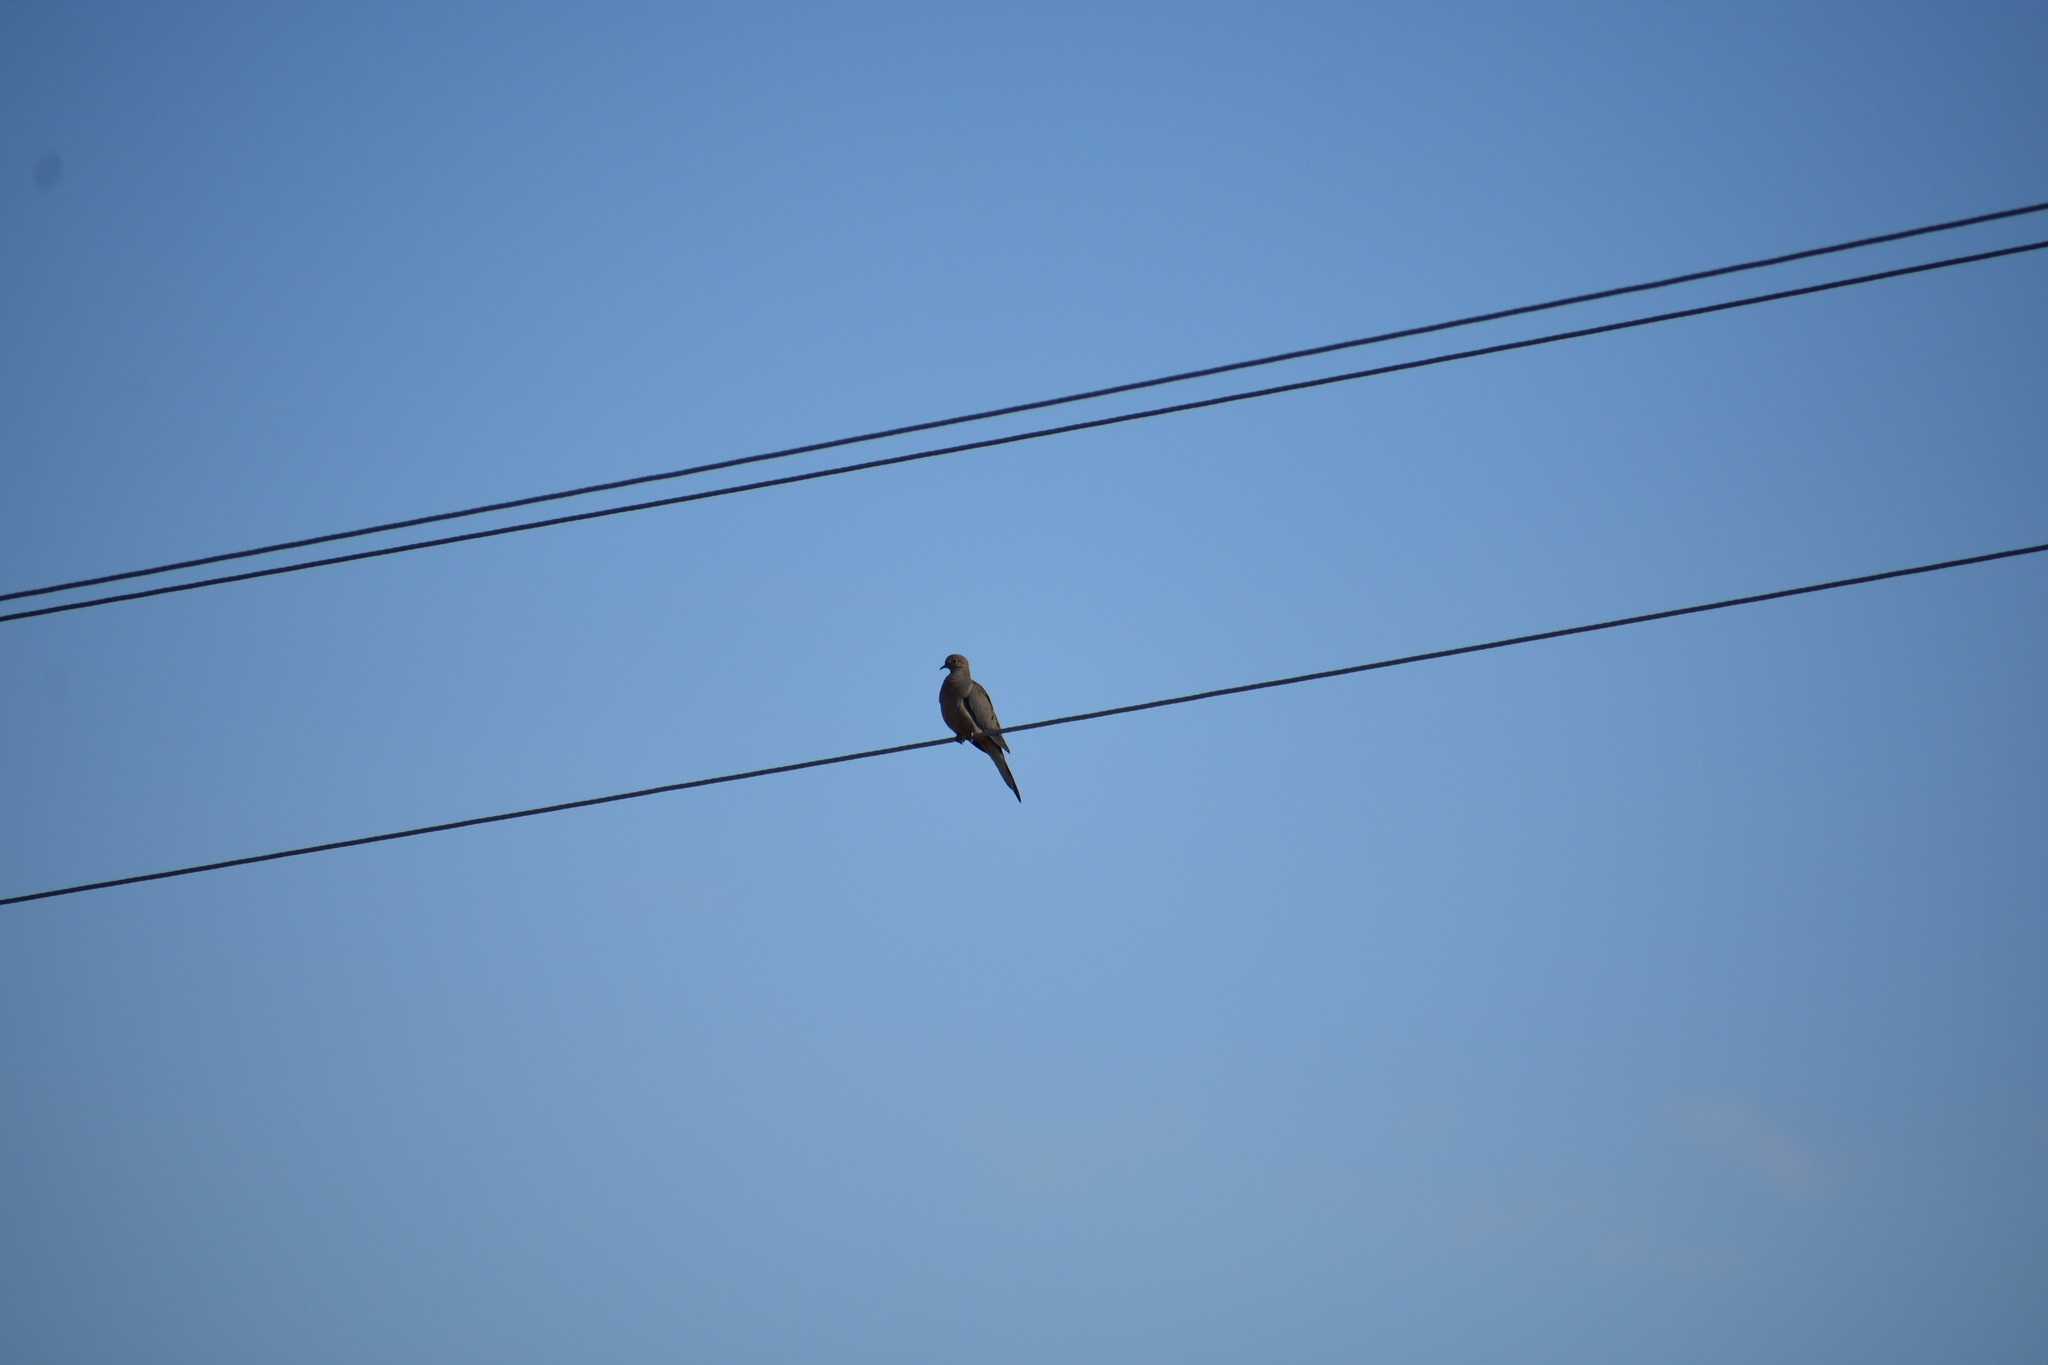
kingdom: Animalia
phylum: Chordata
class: Aves
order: Columbiformes
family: Columbidae
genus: Zenaida
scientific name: Zenaida macroura
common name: Mourning dove
